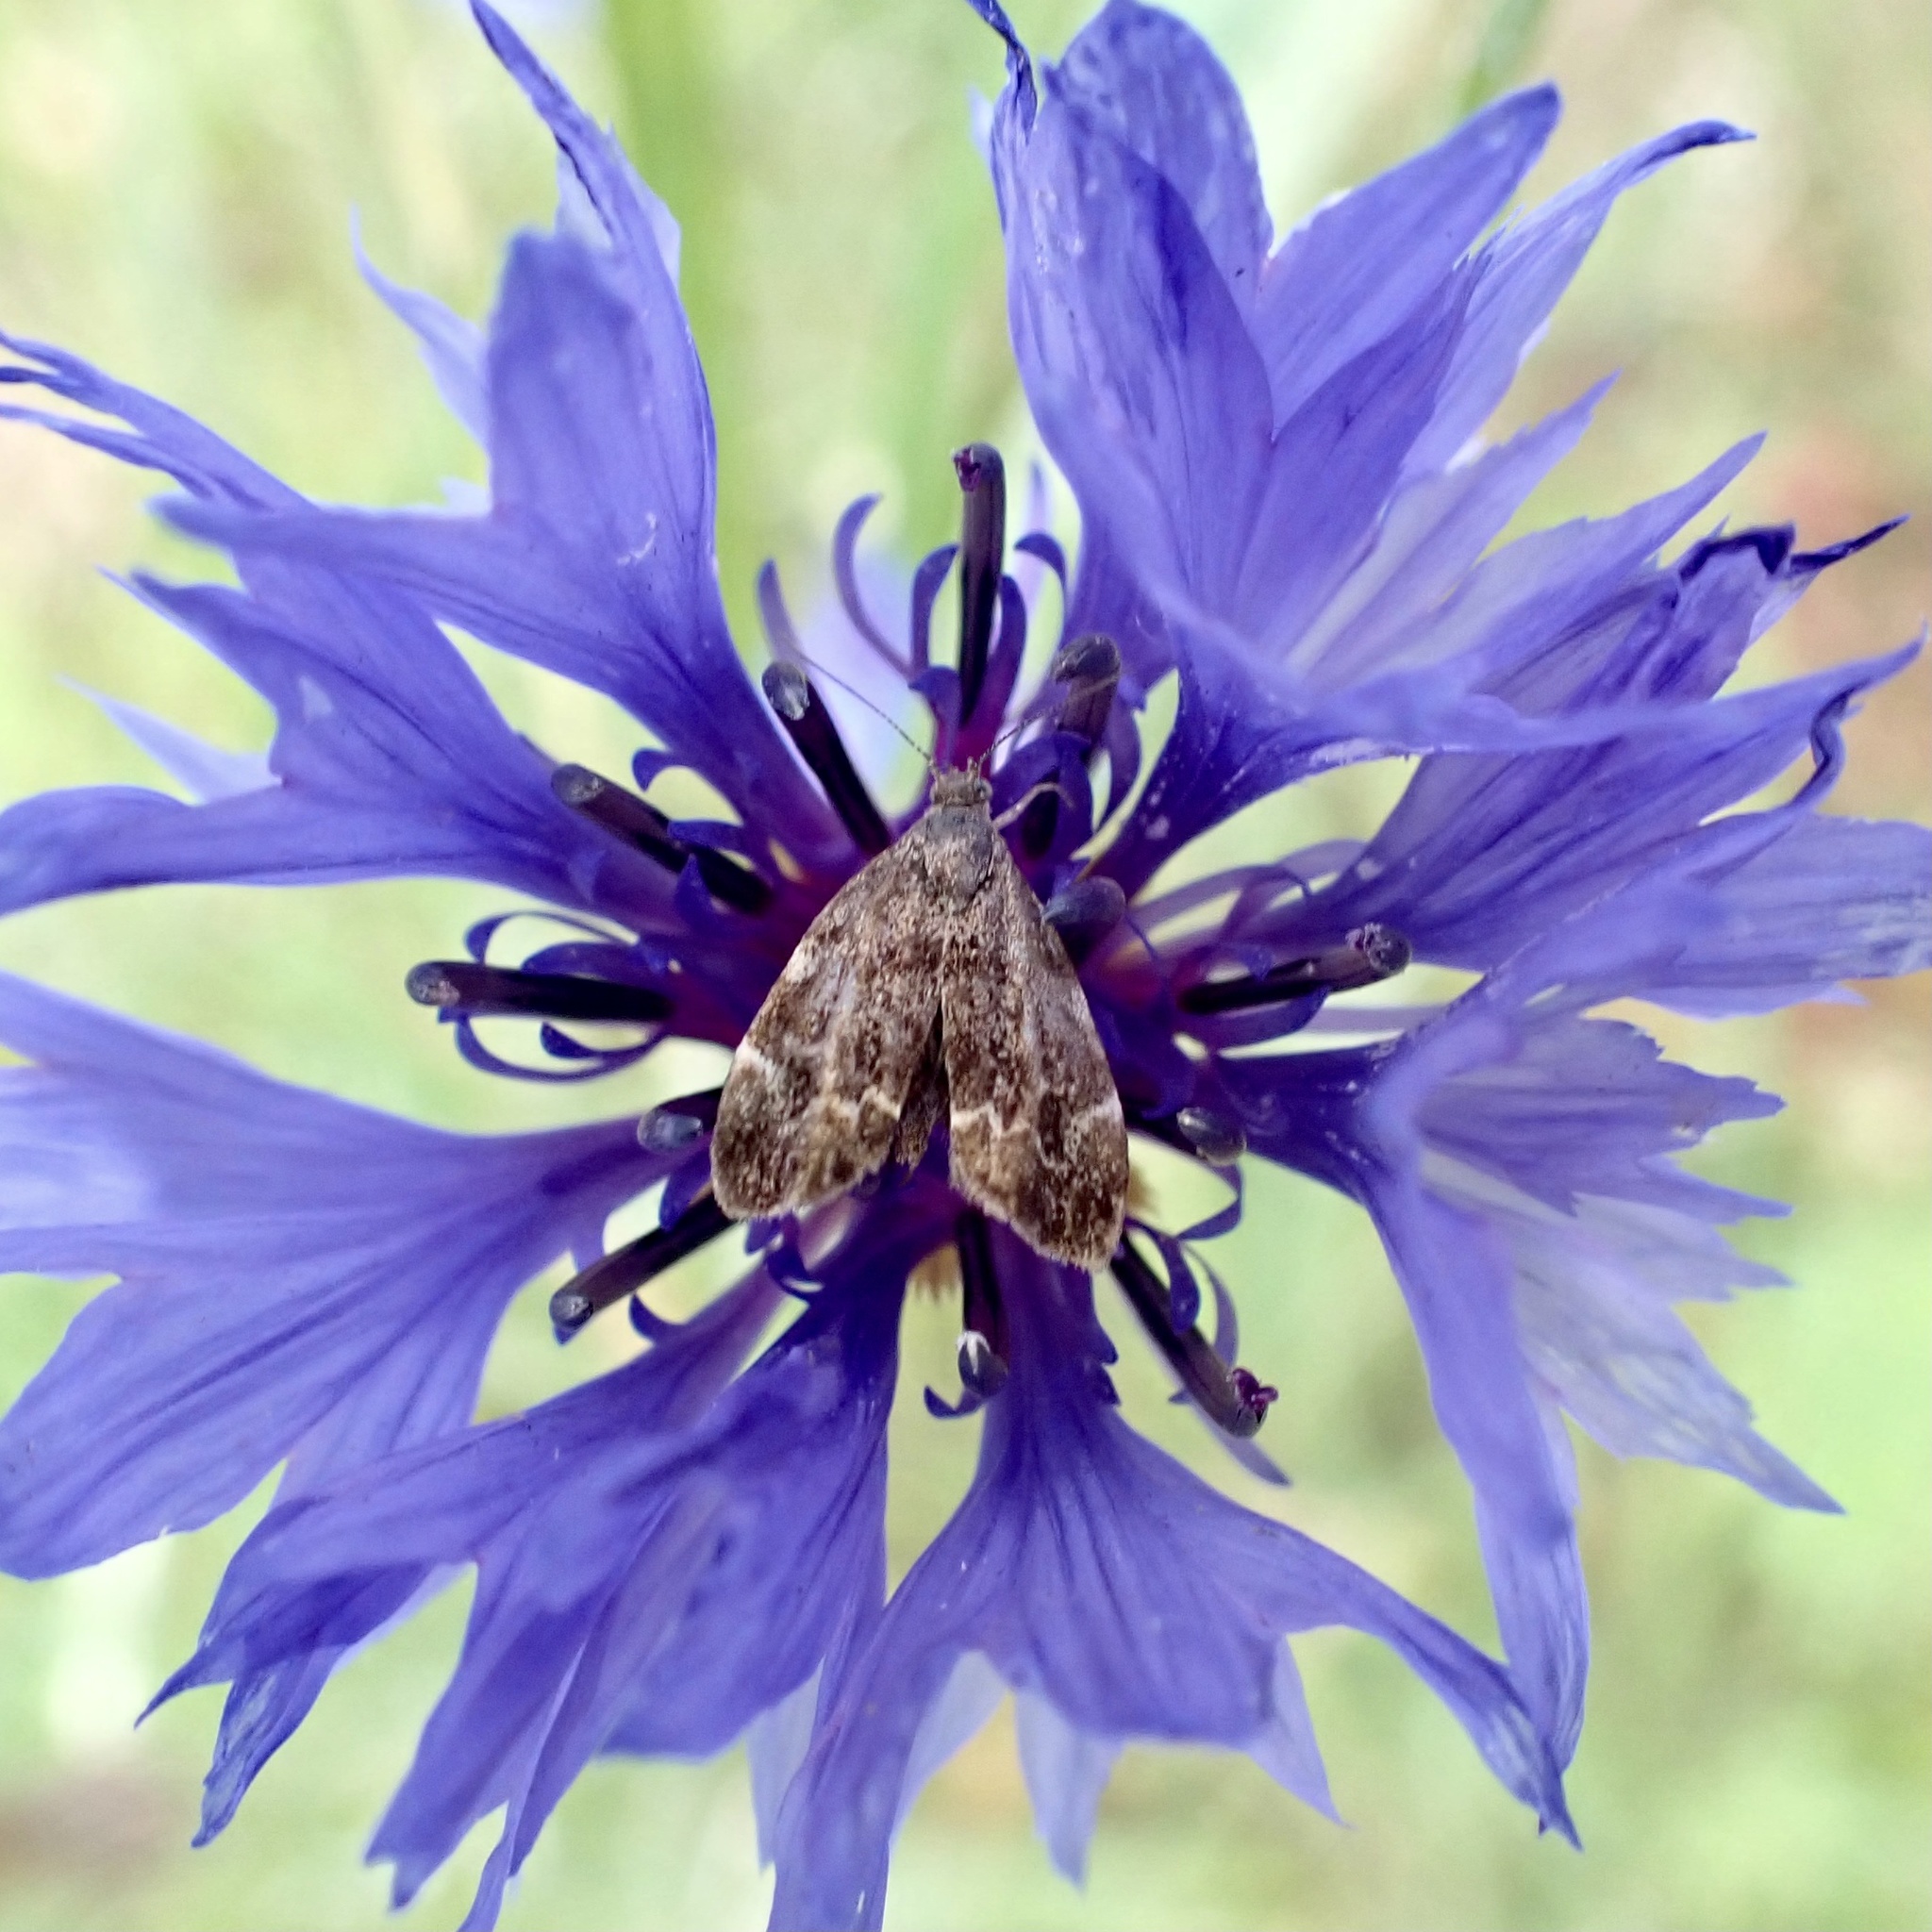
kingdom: Animalia
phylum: Arthropoda
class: Insecta
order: Lepidoptera
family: Choreutidae
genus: Anthophila
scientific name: Anthophila fabriciana
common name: Nettle-tap
